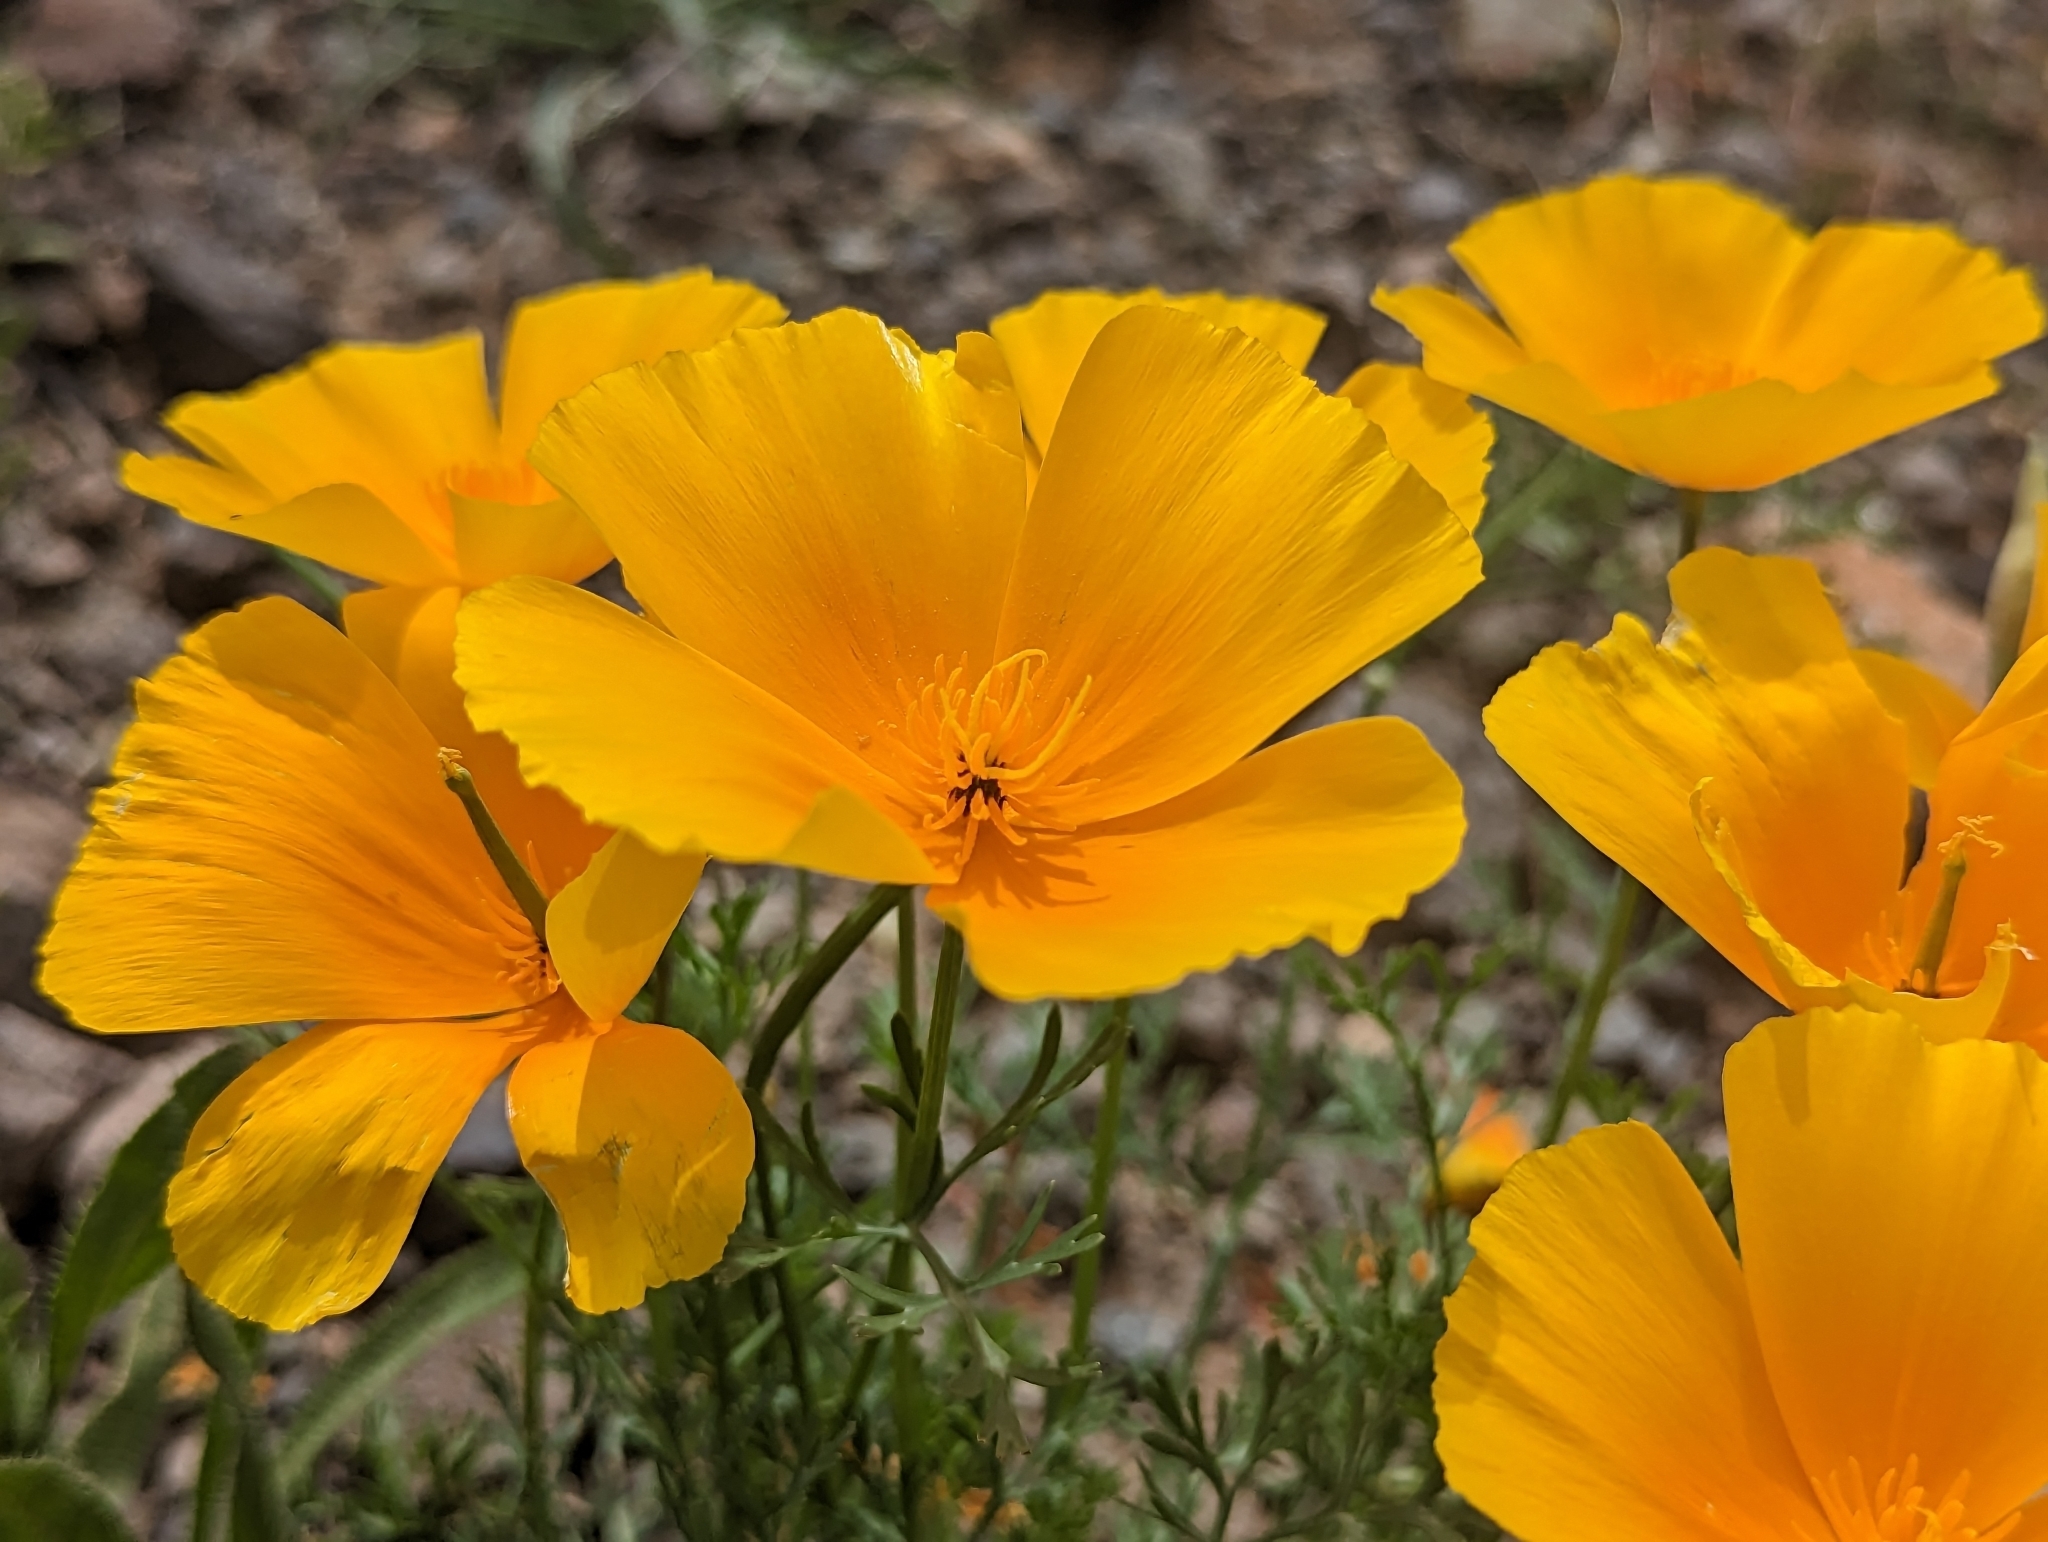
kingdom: Plantae
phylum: Tracheophyta
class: Magnoliopsida
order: Ranunculales
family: Papaveraceae
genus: Eschscholzia
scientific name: Eschscholzia californica
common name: California poppy
